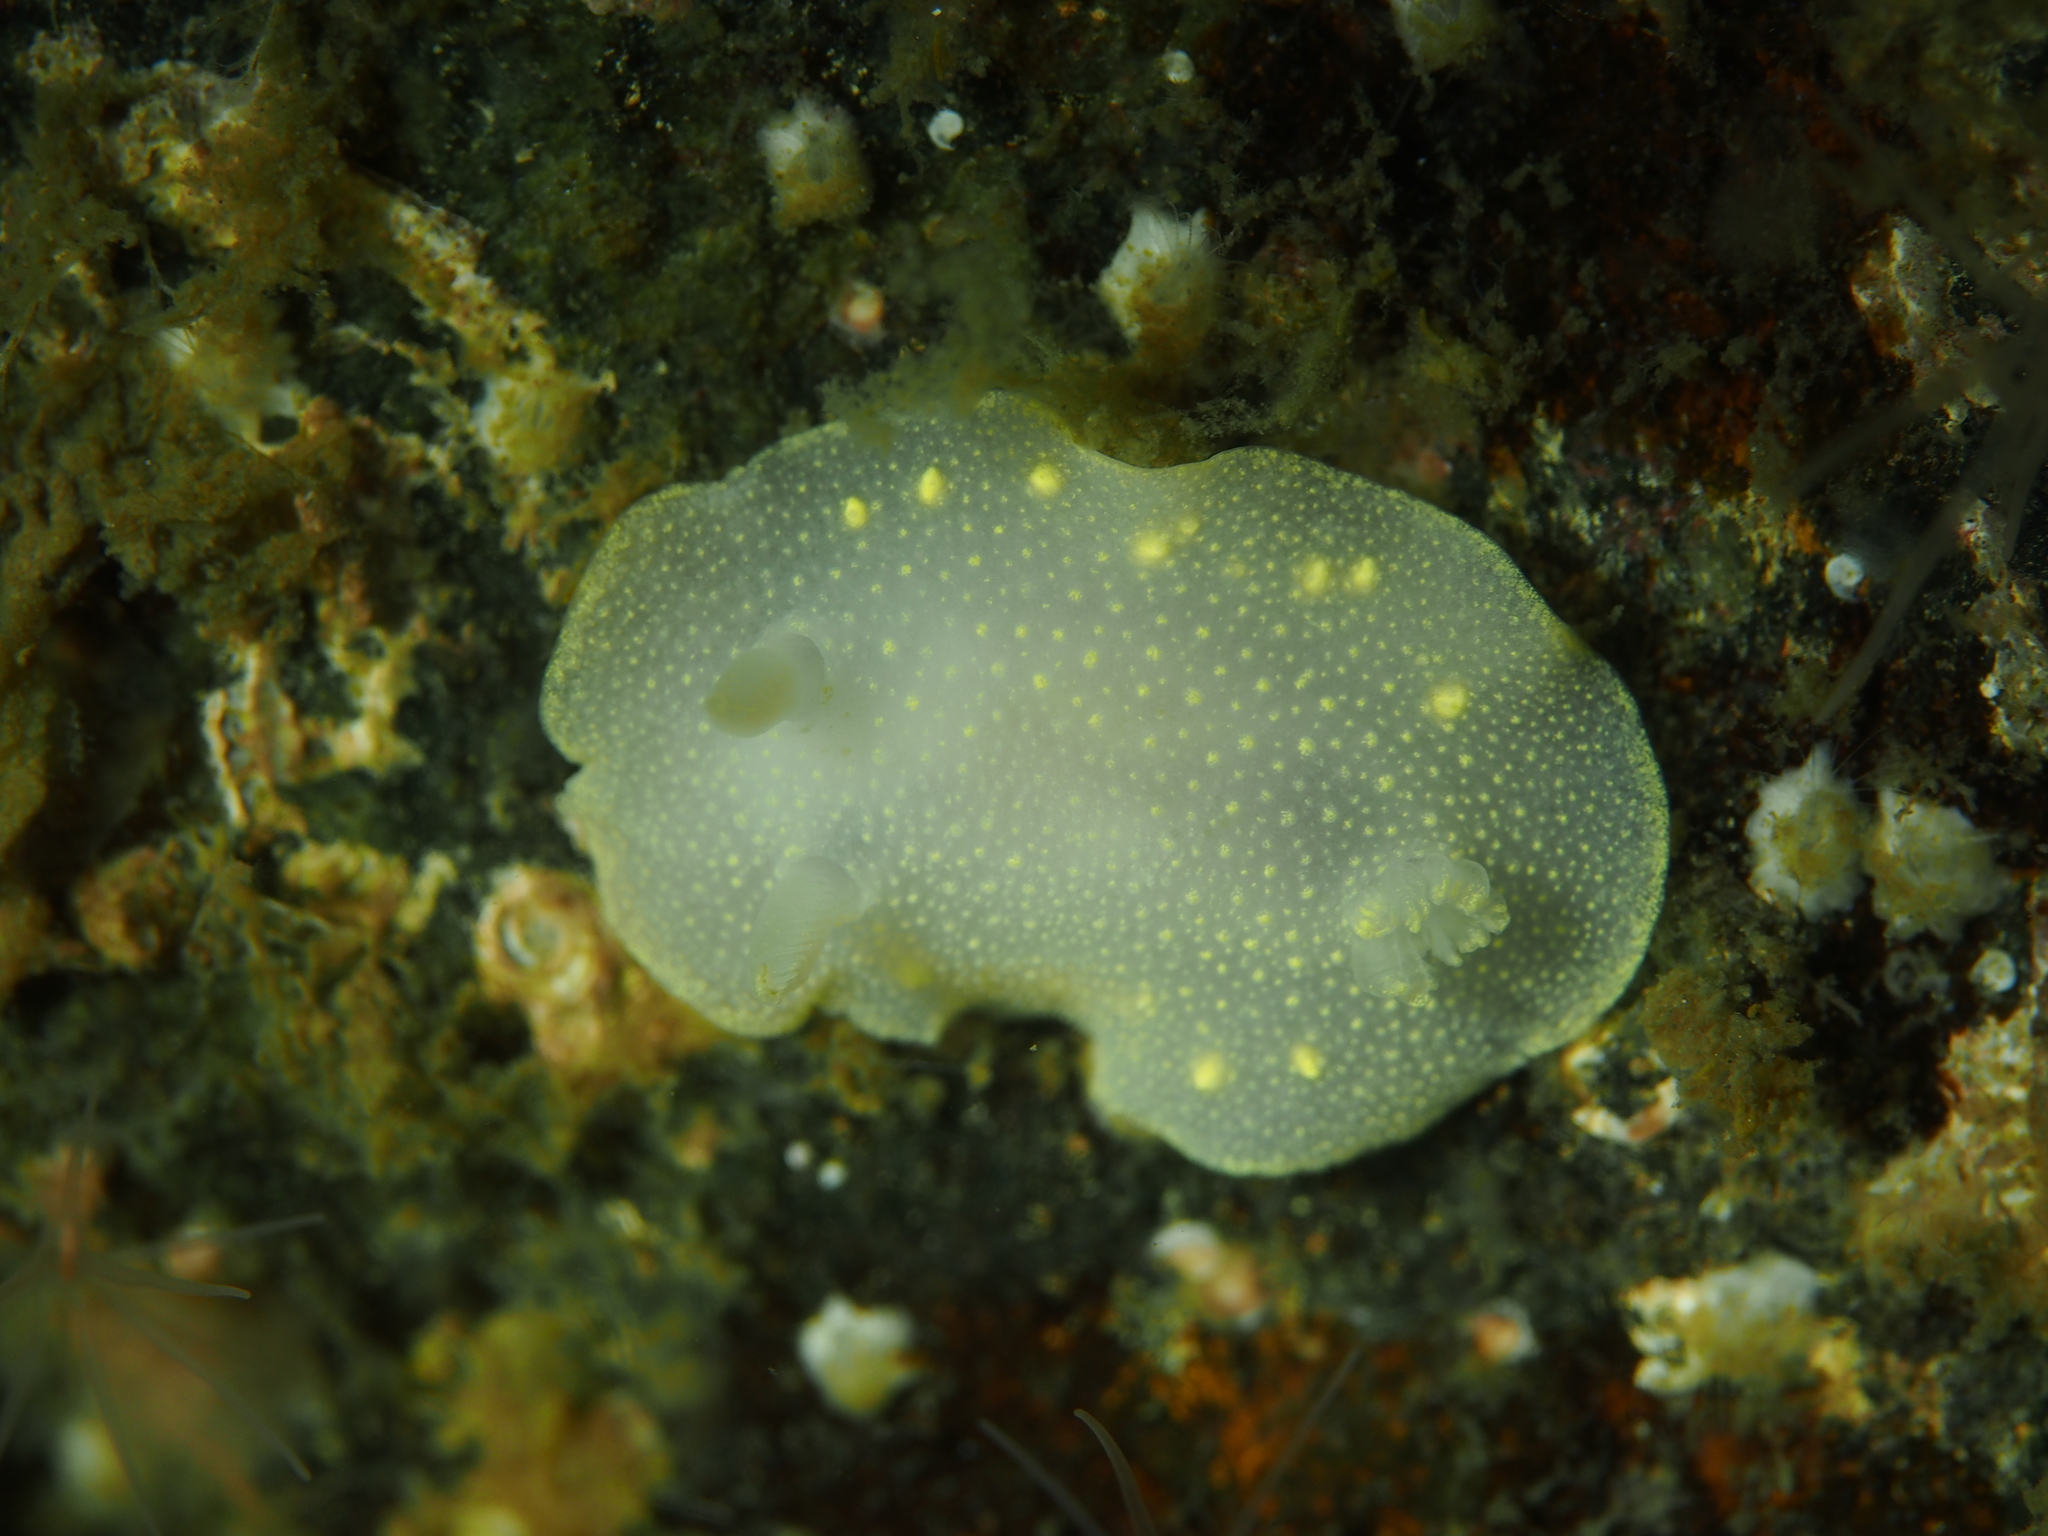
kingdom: Animalia
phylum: Mollusca
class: Gastropoda
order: Nudibranchia
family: Cadlinidae
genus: Cadlina
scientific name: Cadlina laevis
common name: White atlantic cadlina
